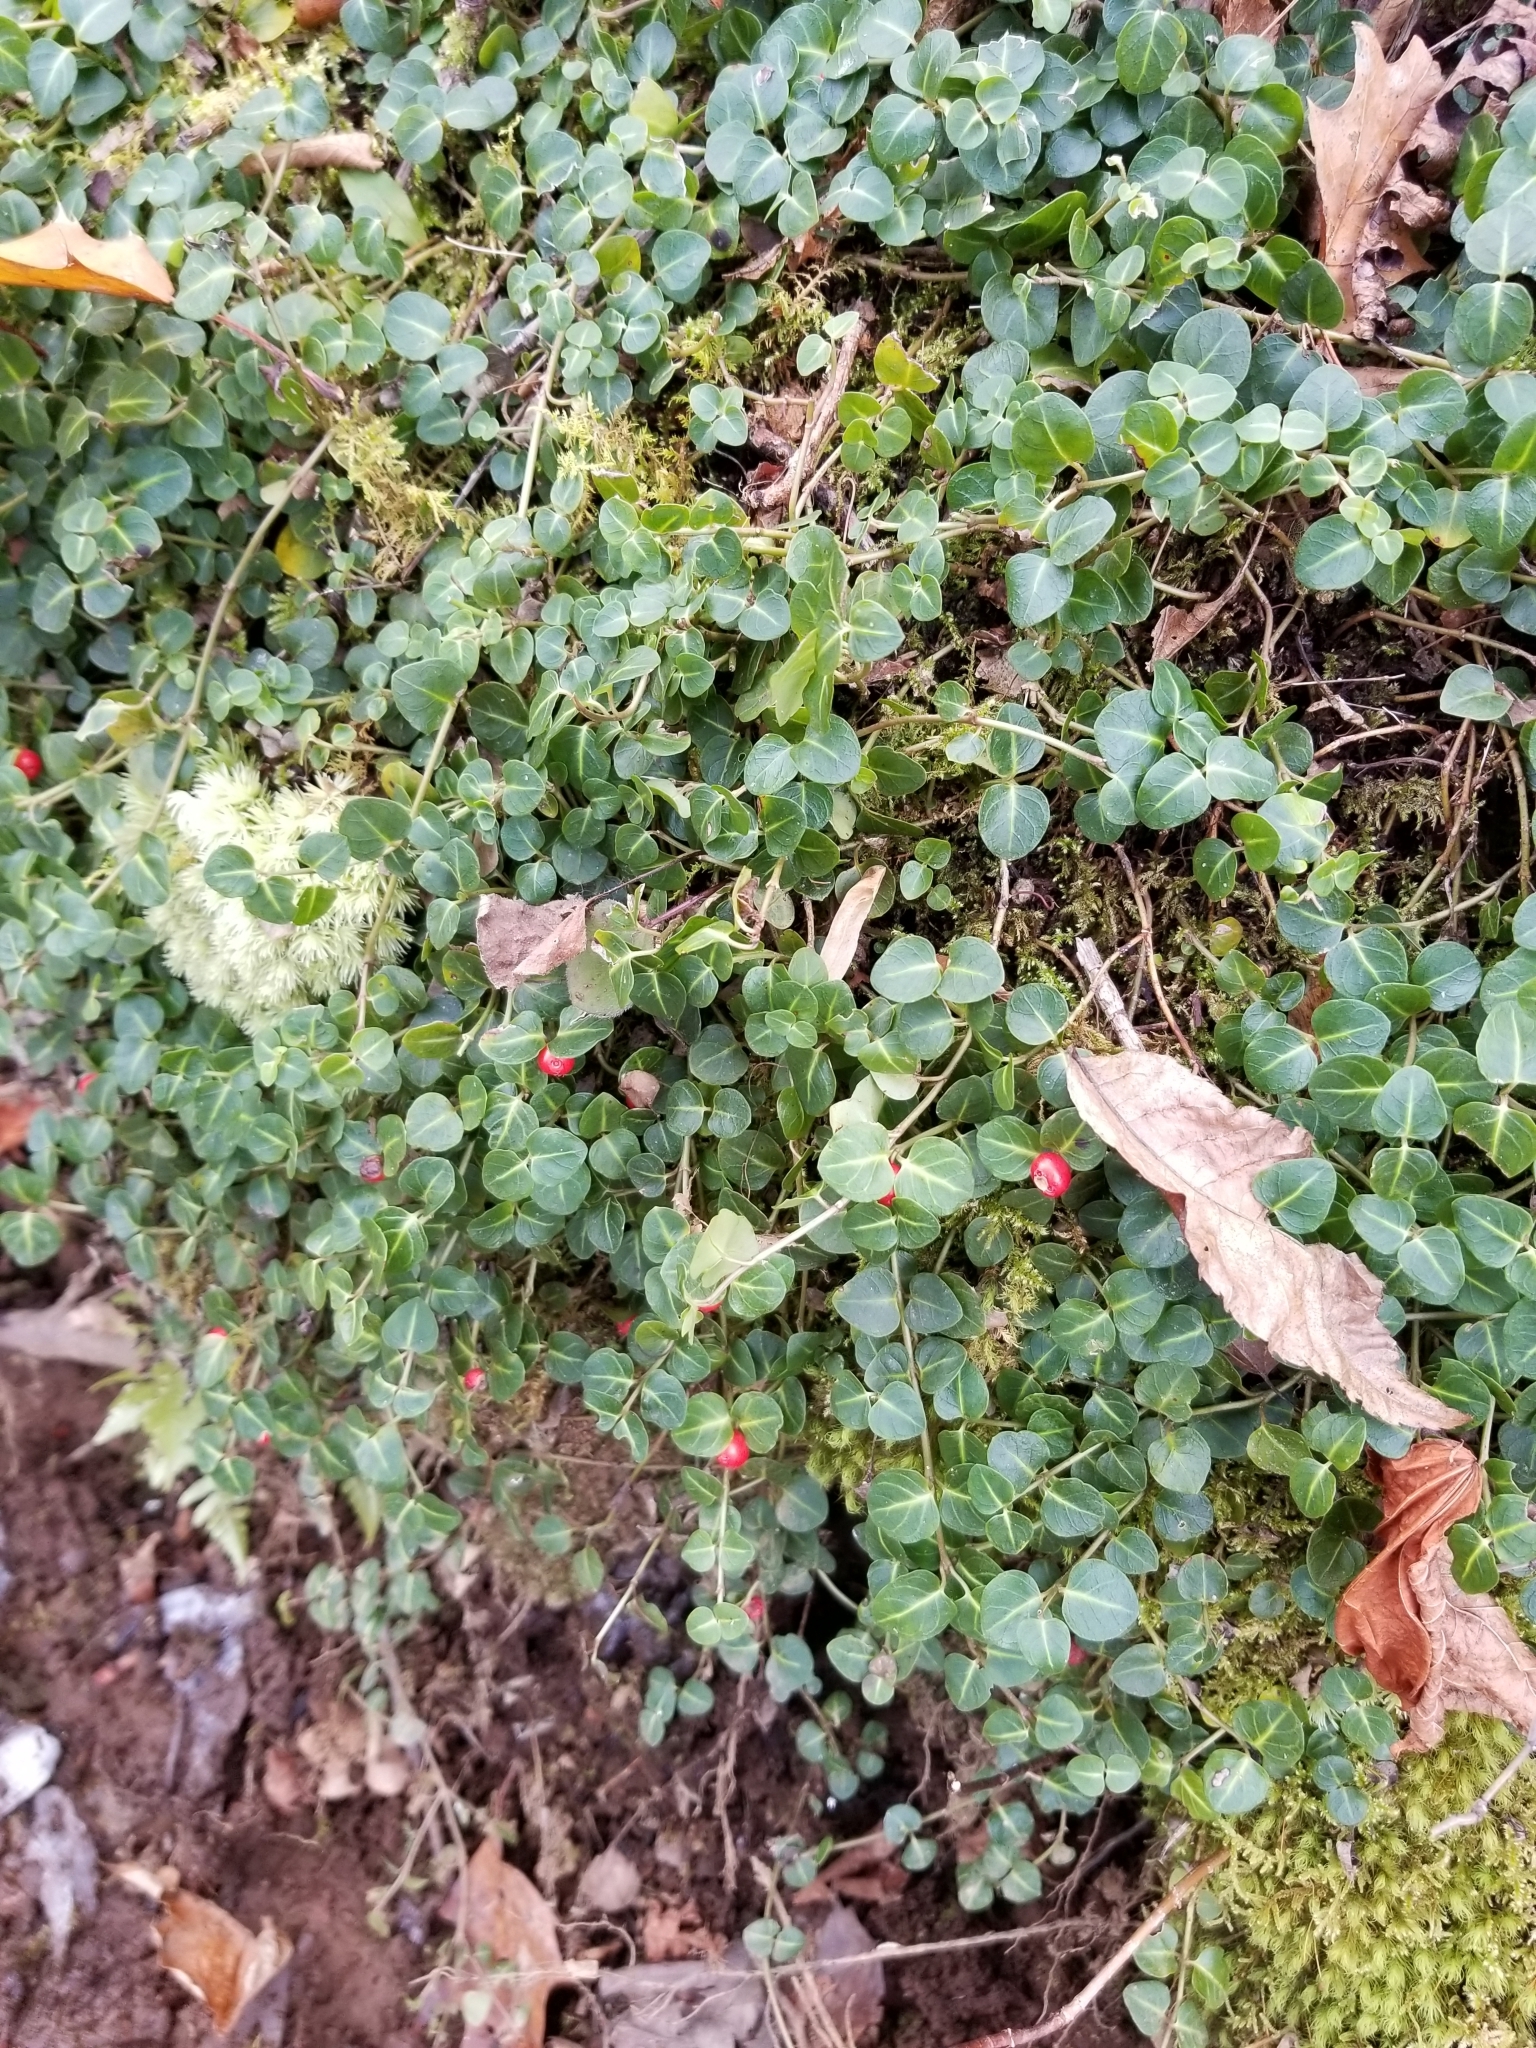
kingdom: Plantae
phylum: Tracheophyta
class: Magnoliopsida
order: Gentianales
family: Rubiaceae
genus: Mitchella
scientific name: Mitchella repens
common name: Partridge-berry
